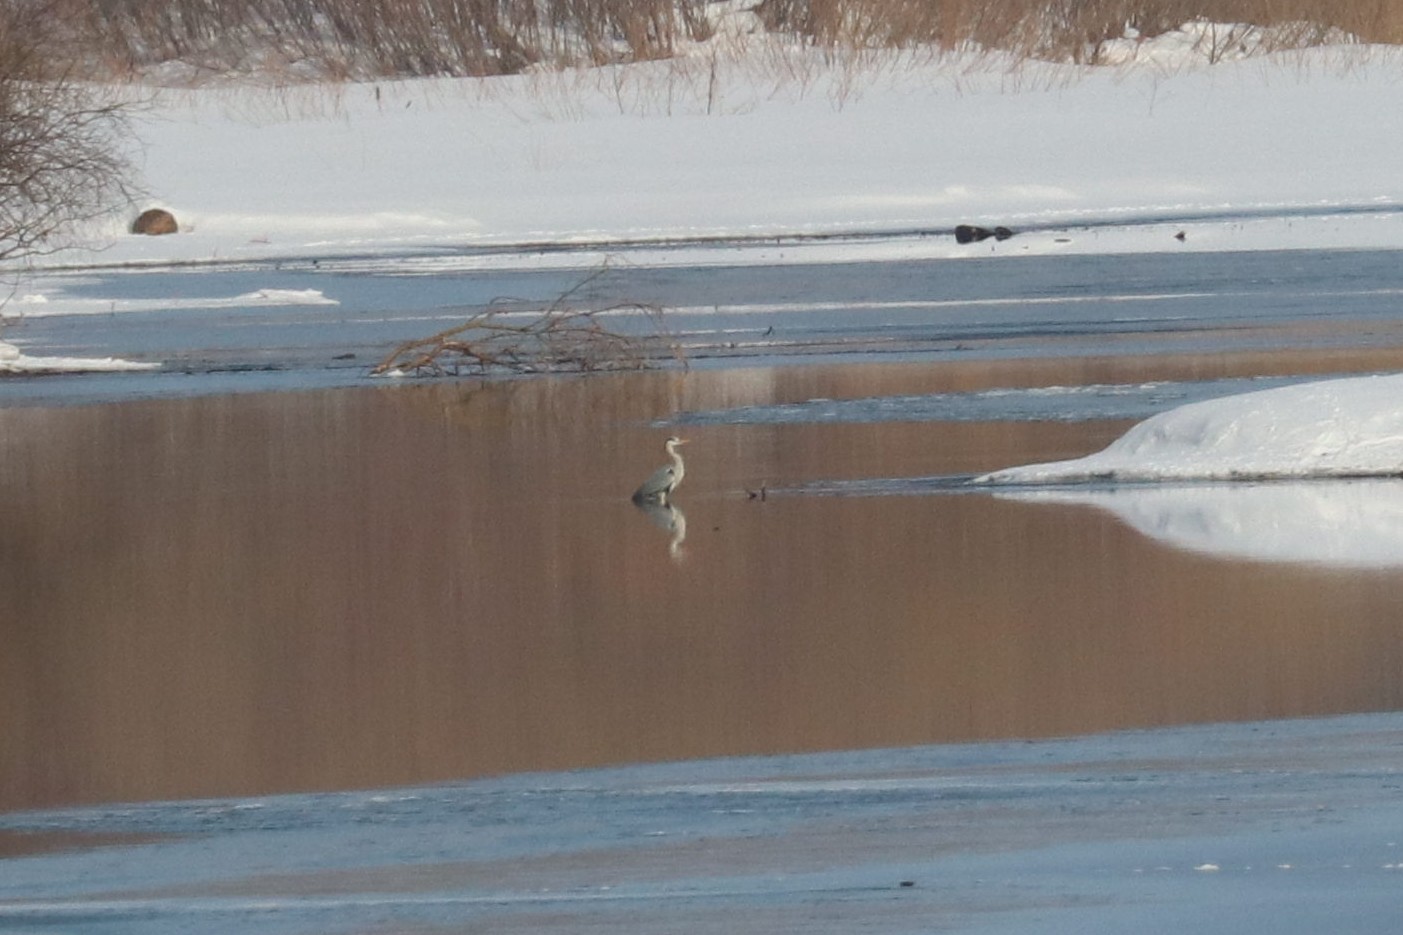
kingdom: Animalia
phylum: Chordata
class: Aves
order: Pelecaniformes
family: Ardeidae
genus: Ardea
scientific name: Ardea cinerea
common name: Grey heron
